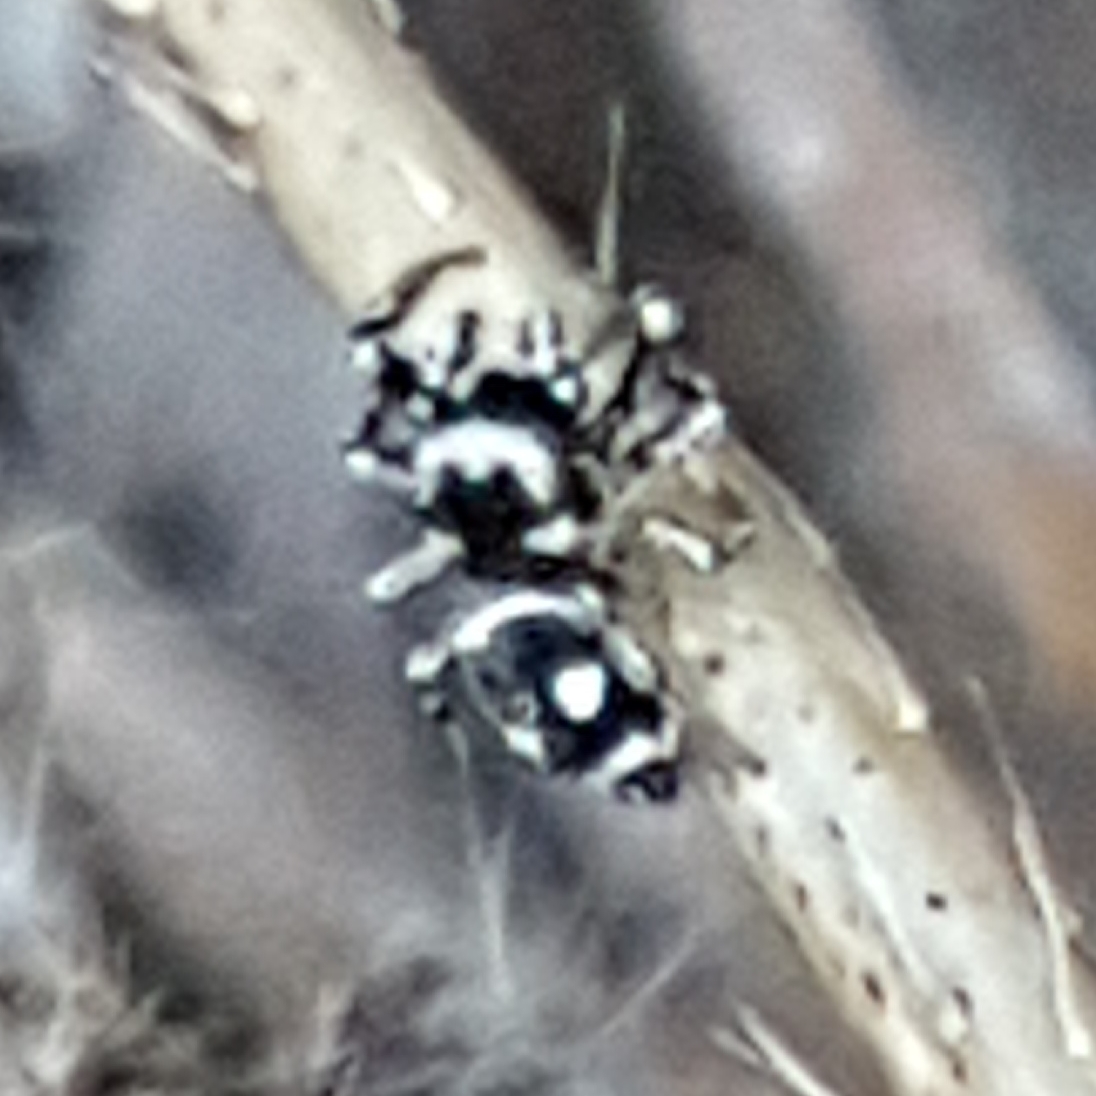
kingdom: Animalia
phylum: Arthropoda
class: Arachnida
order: Araneae
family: Salticidae
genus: Heliophanus
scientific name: Heliophanus apiatus
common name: Sun jumping spider
